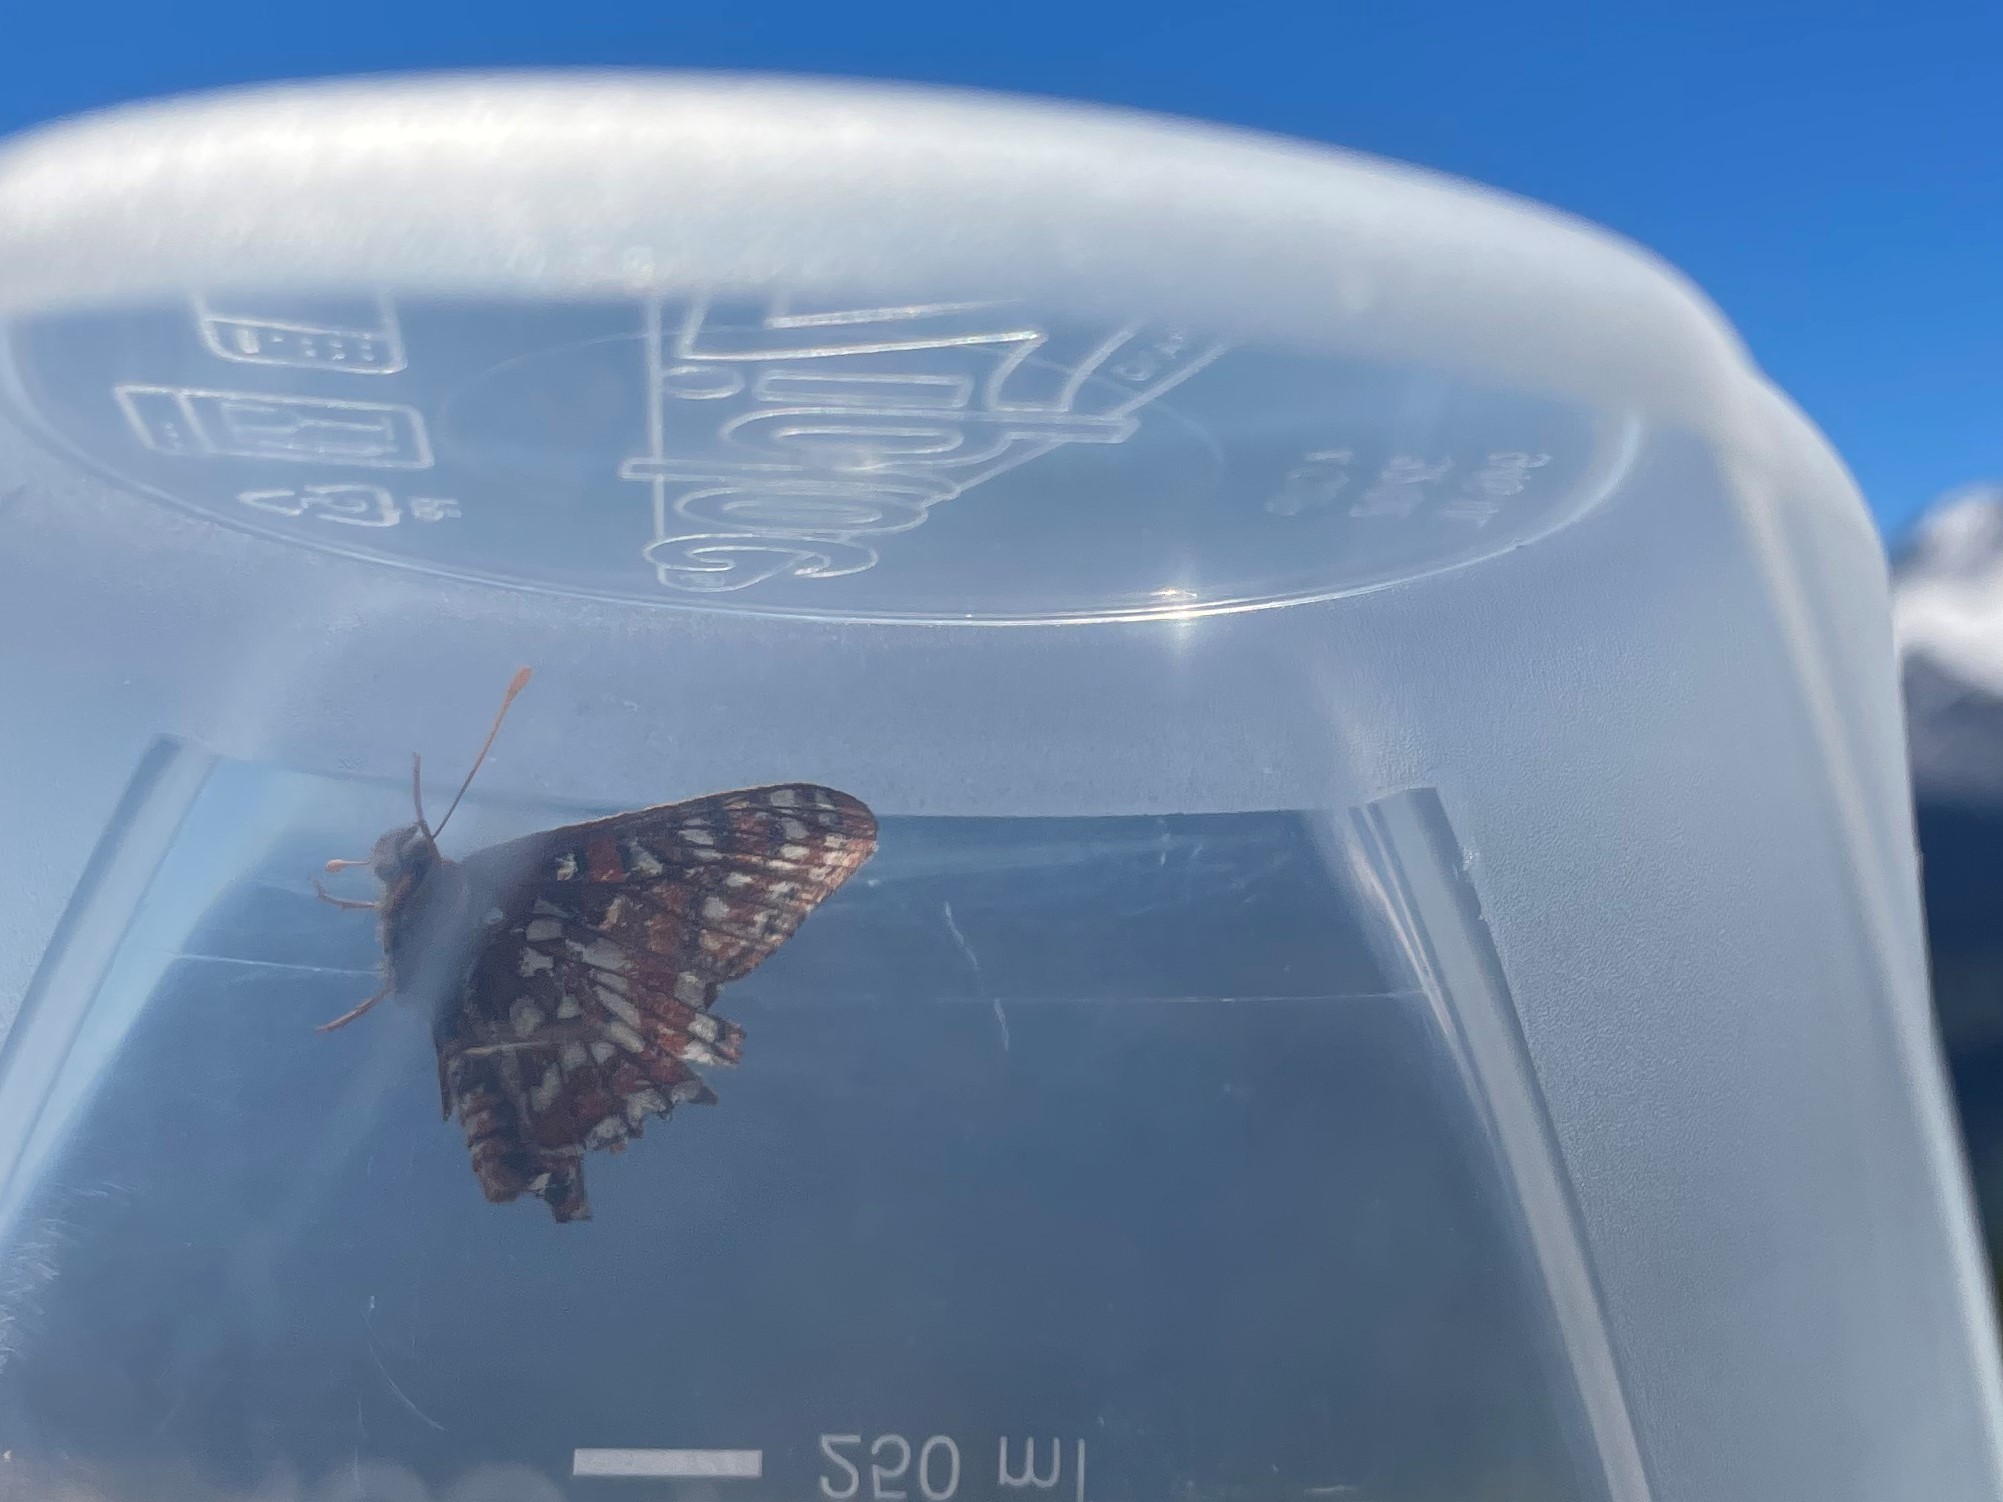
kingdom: Animalia
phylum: Arthropoda
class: Insecta
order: Lepidoptera
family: Nymphalidae
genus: Occidryas
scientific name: Occidryas editha
